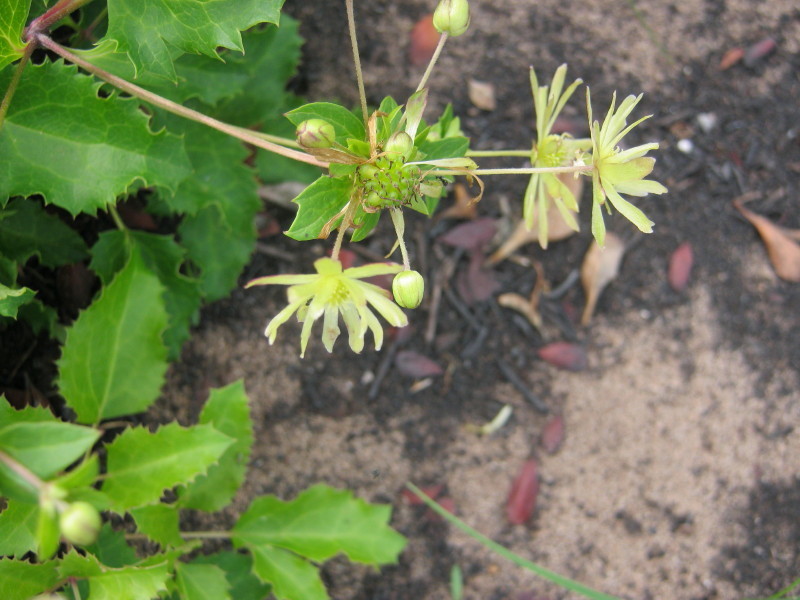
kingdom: Plantae
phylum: Tracheophyta
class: Magnoliopsida
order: Ranunculales
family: Ranunculaceae
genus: Knowltonia
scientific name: Knowltonia vesicatoria
